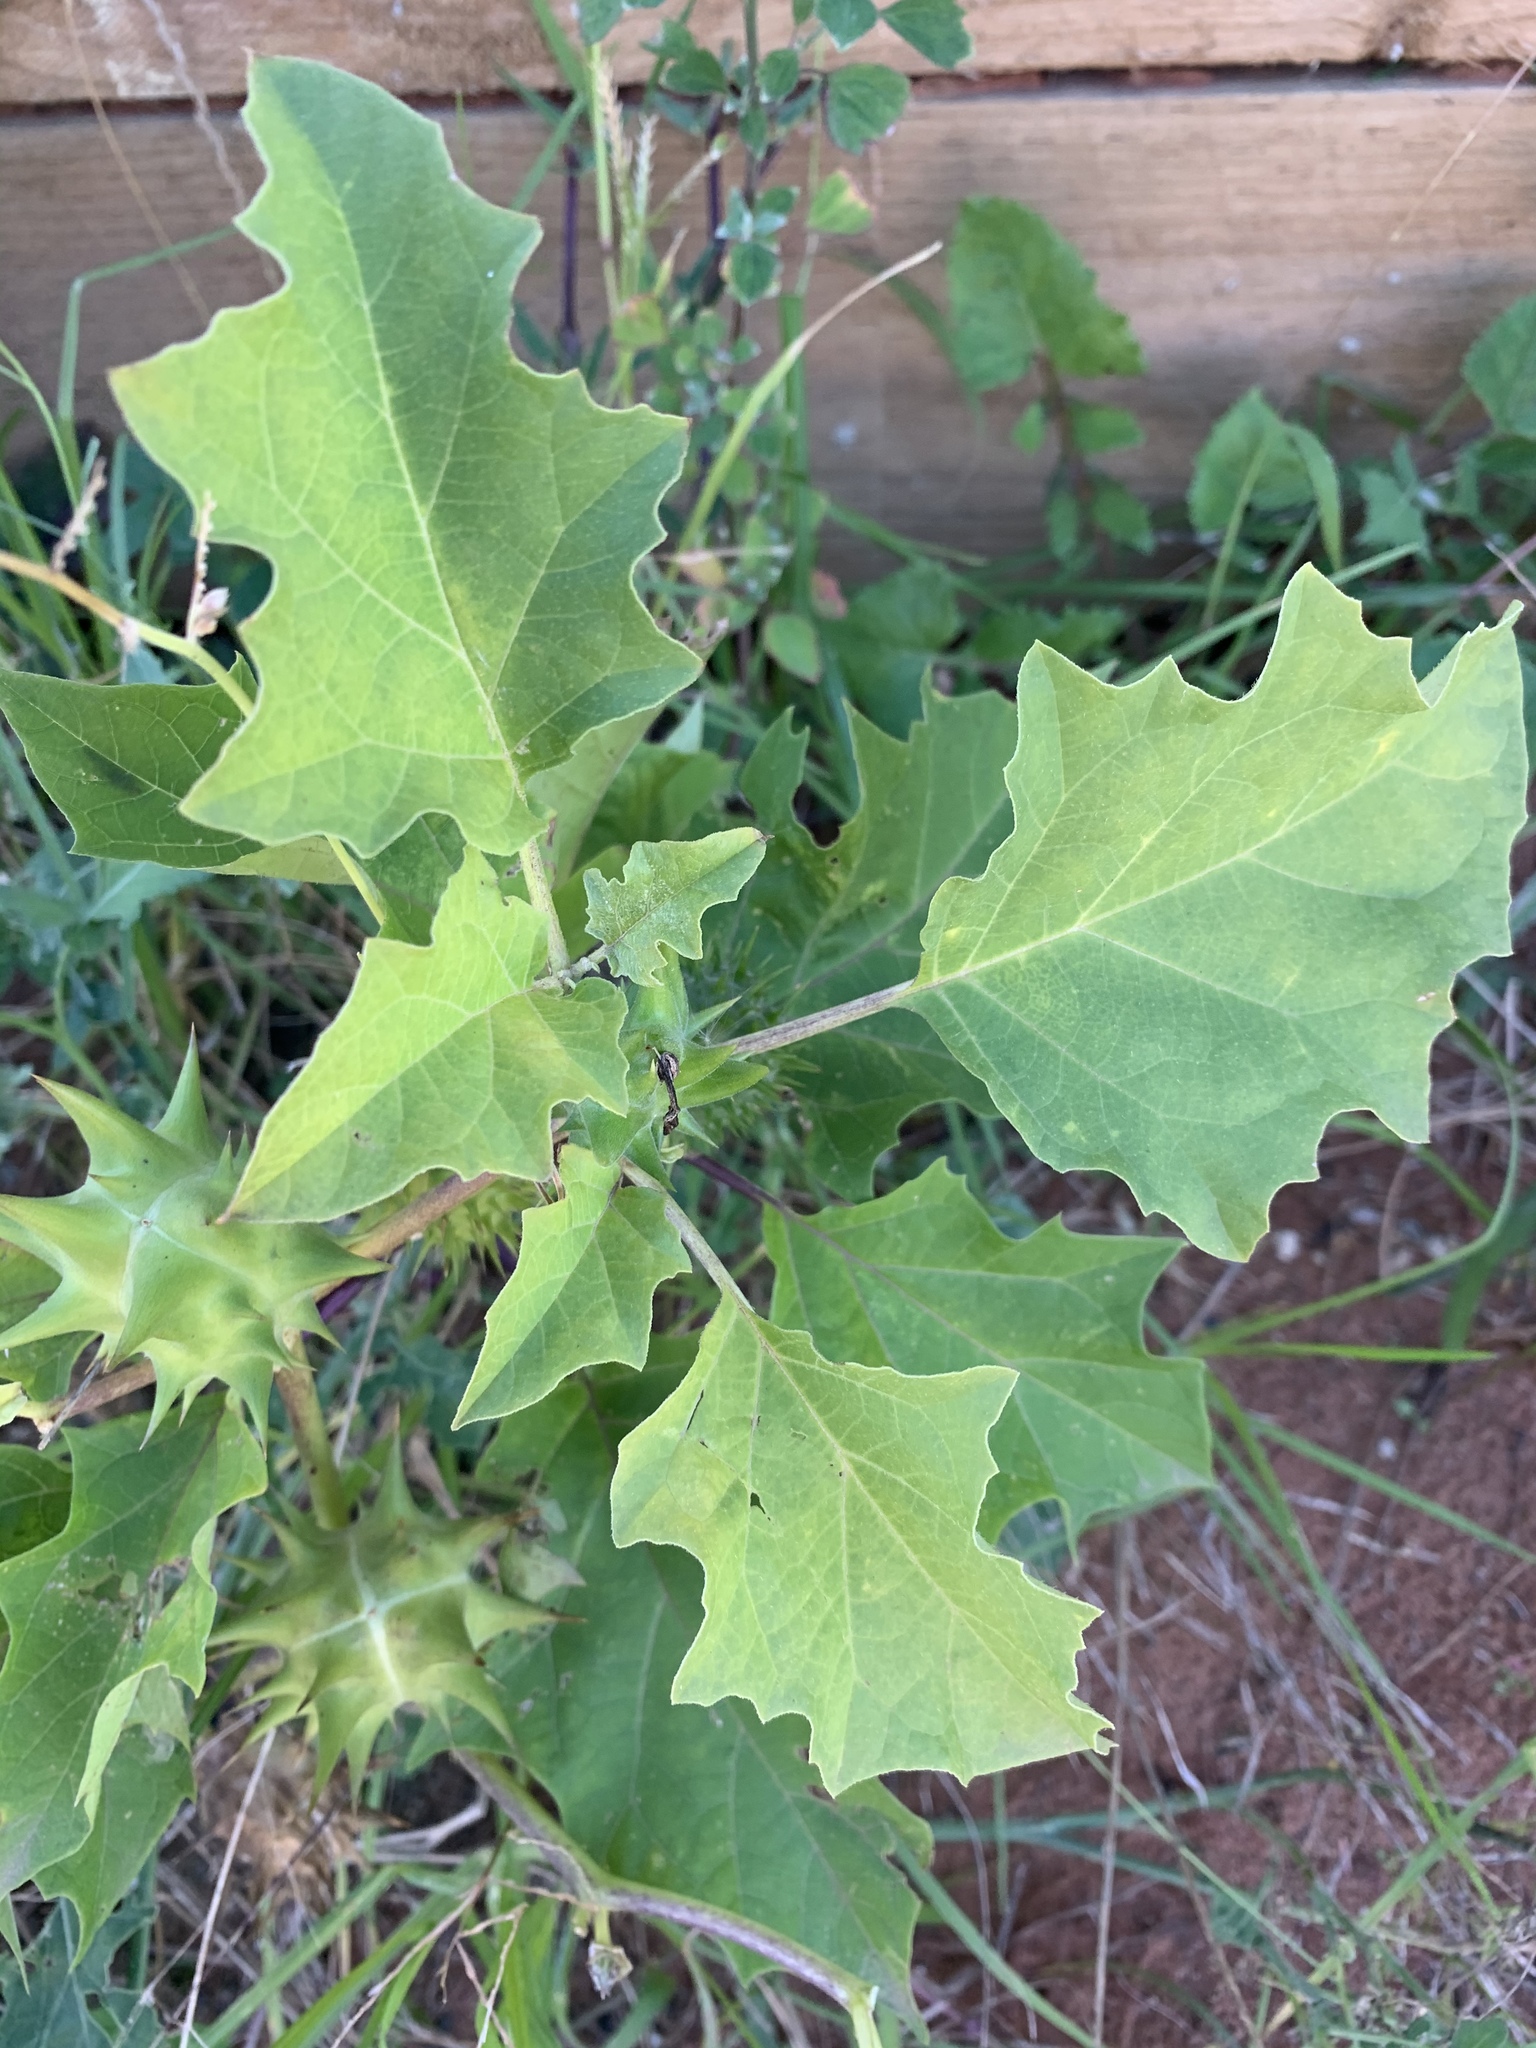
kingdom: Plantae
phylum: Tracheophyta
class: Magnoliopsida
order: Solanales
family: Solanaceae
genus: Datura
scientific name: Datura ferox
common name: Angel's-trumpets
